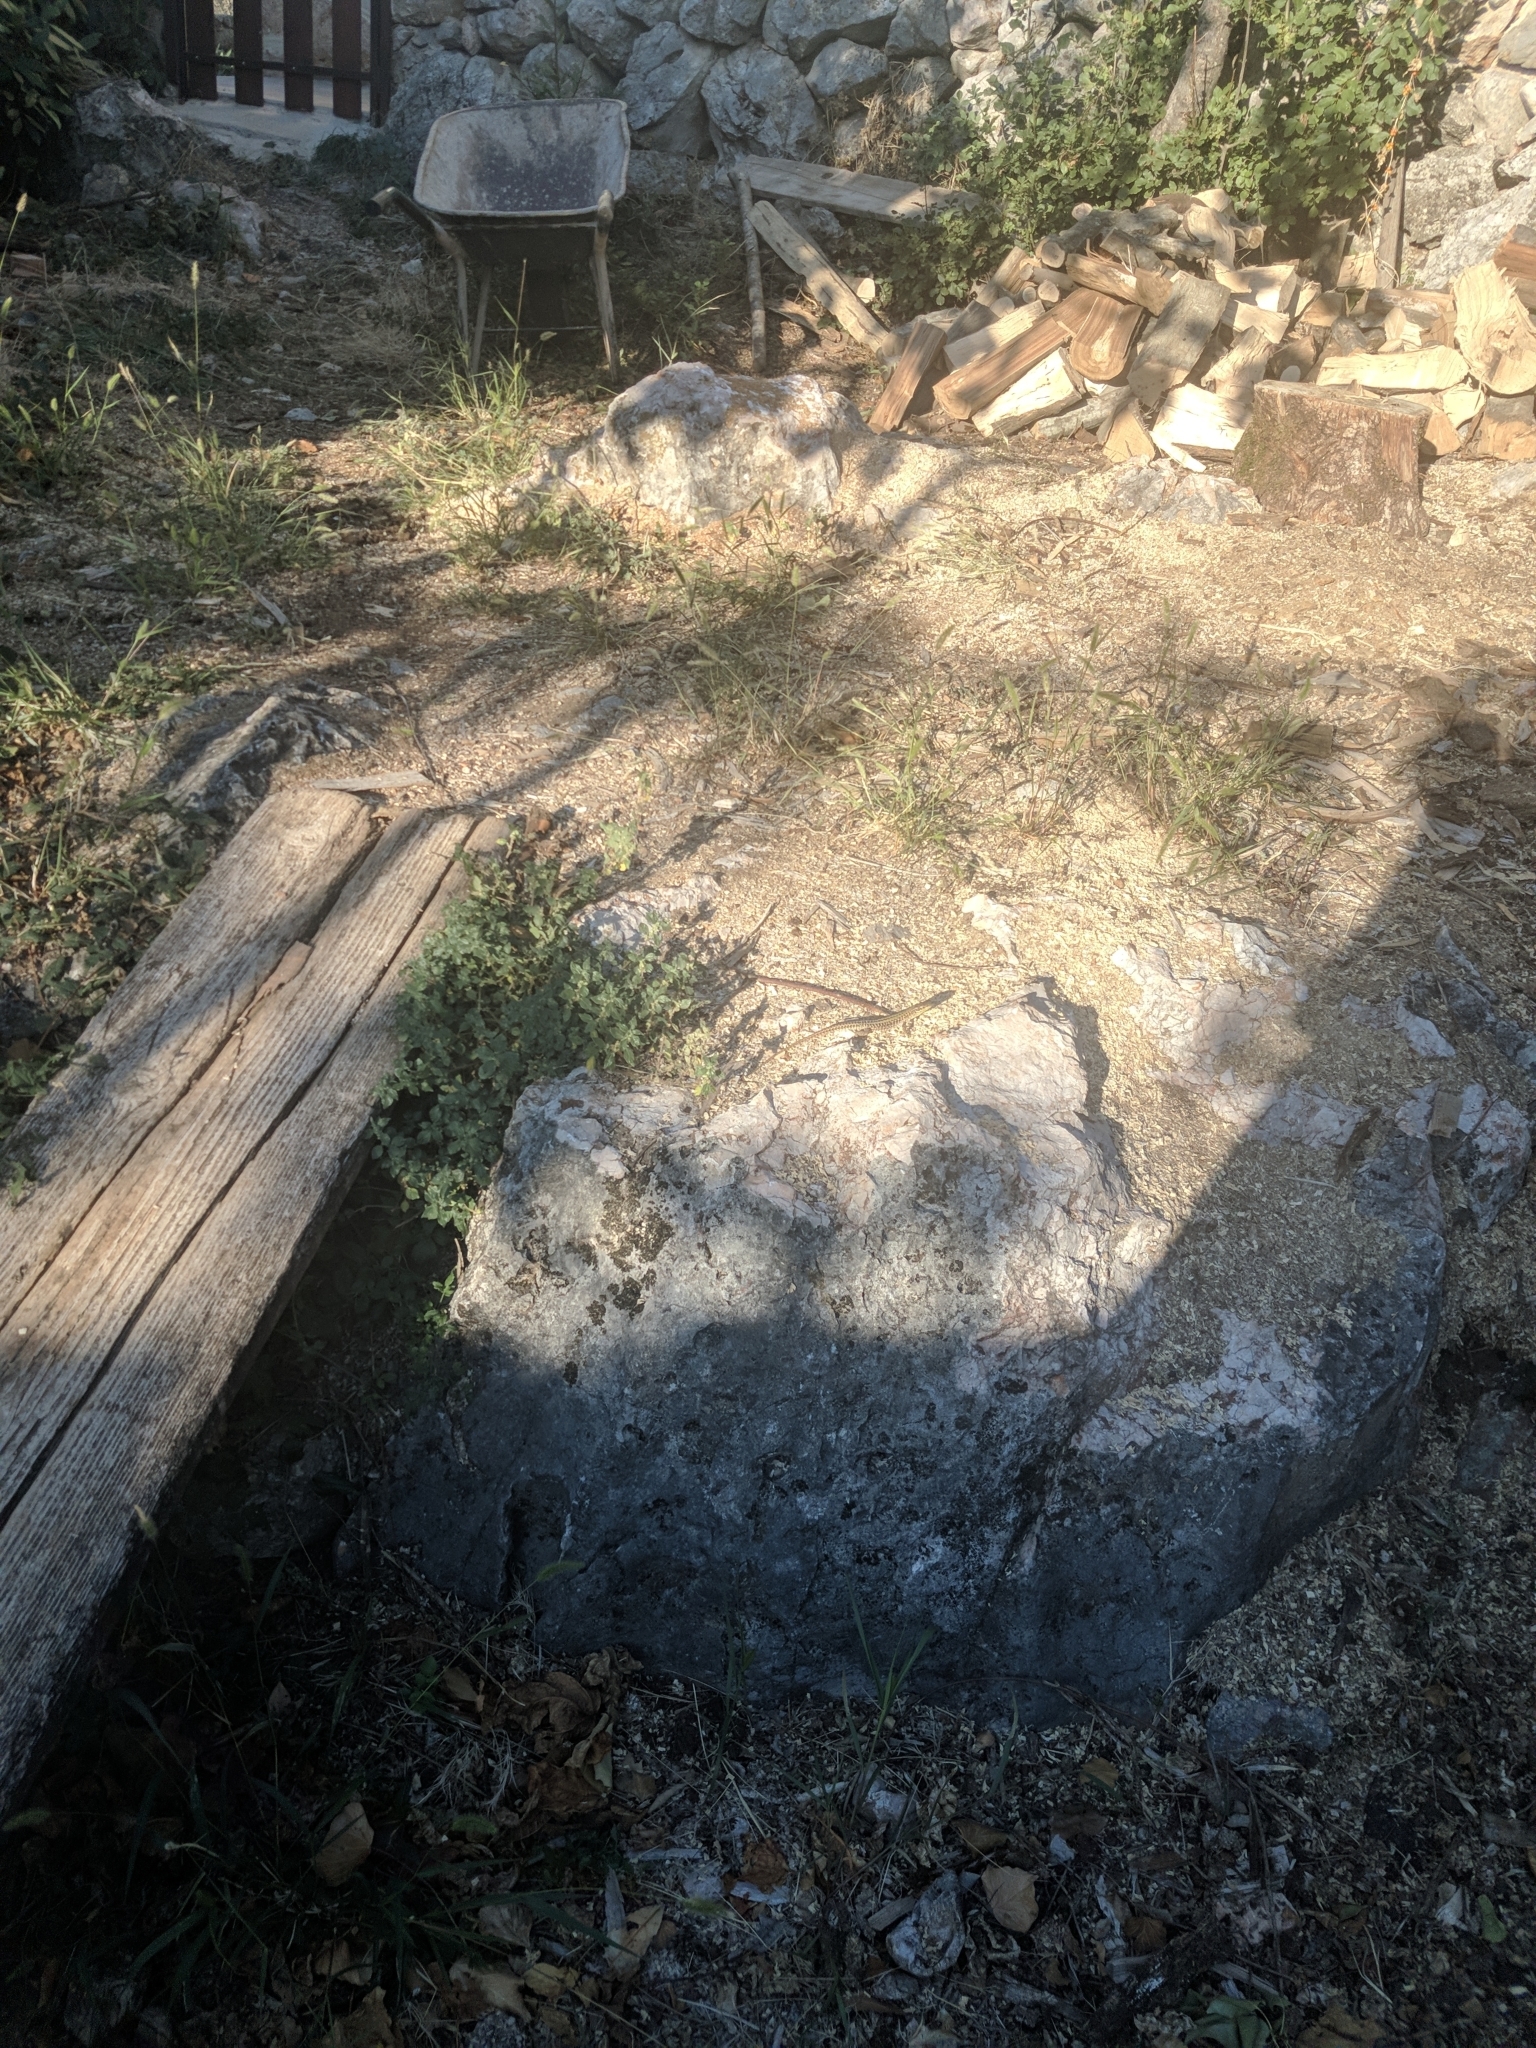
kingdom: Animalia
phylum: Chordata
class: Squamata
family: Lacertidae
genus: Podarcis
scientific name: Podarcis siculus
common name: Italian wall lizard
